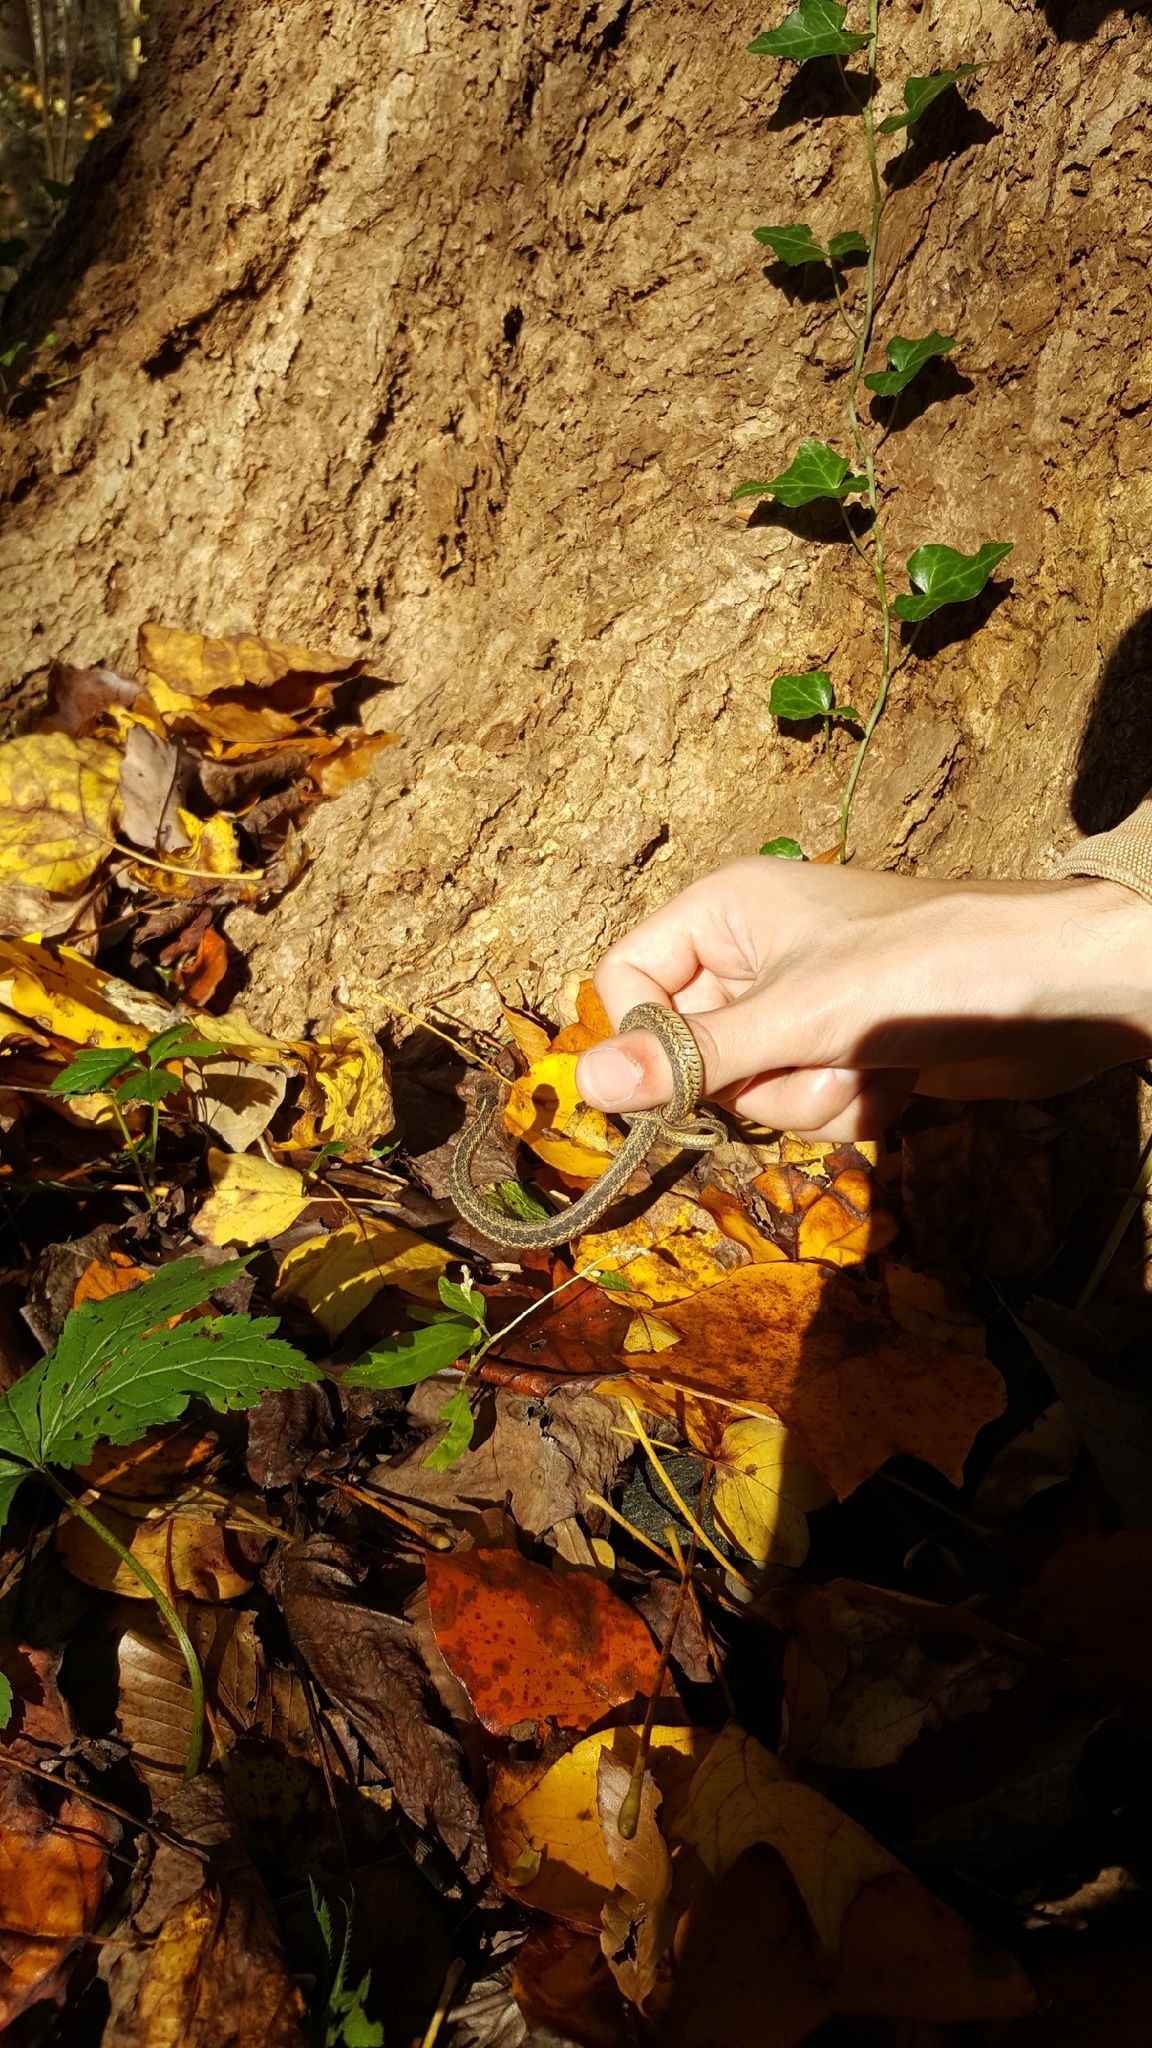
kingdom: Animalia
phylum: Chordata
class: Squamata
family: Colubridae
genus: Thamnophis
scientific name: Thamnophis sirtalis
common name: Common garter snake
